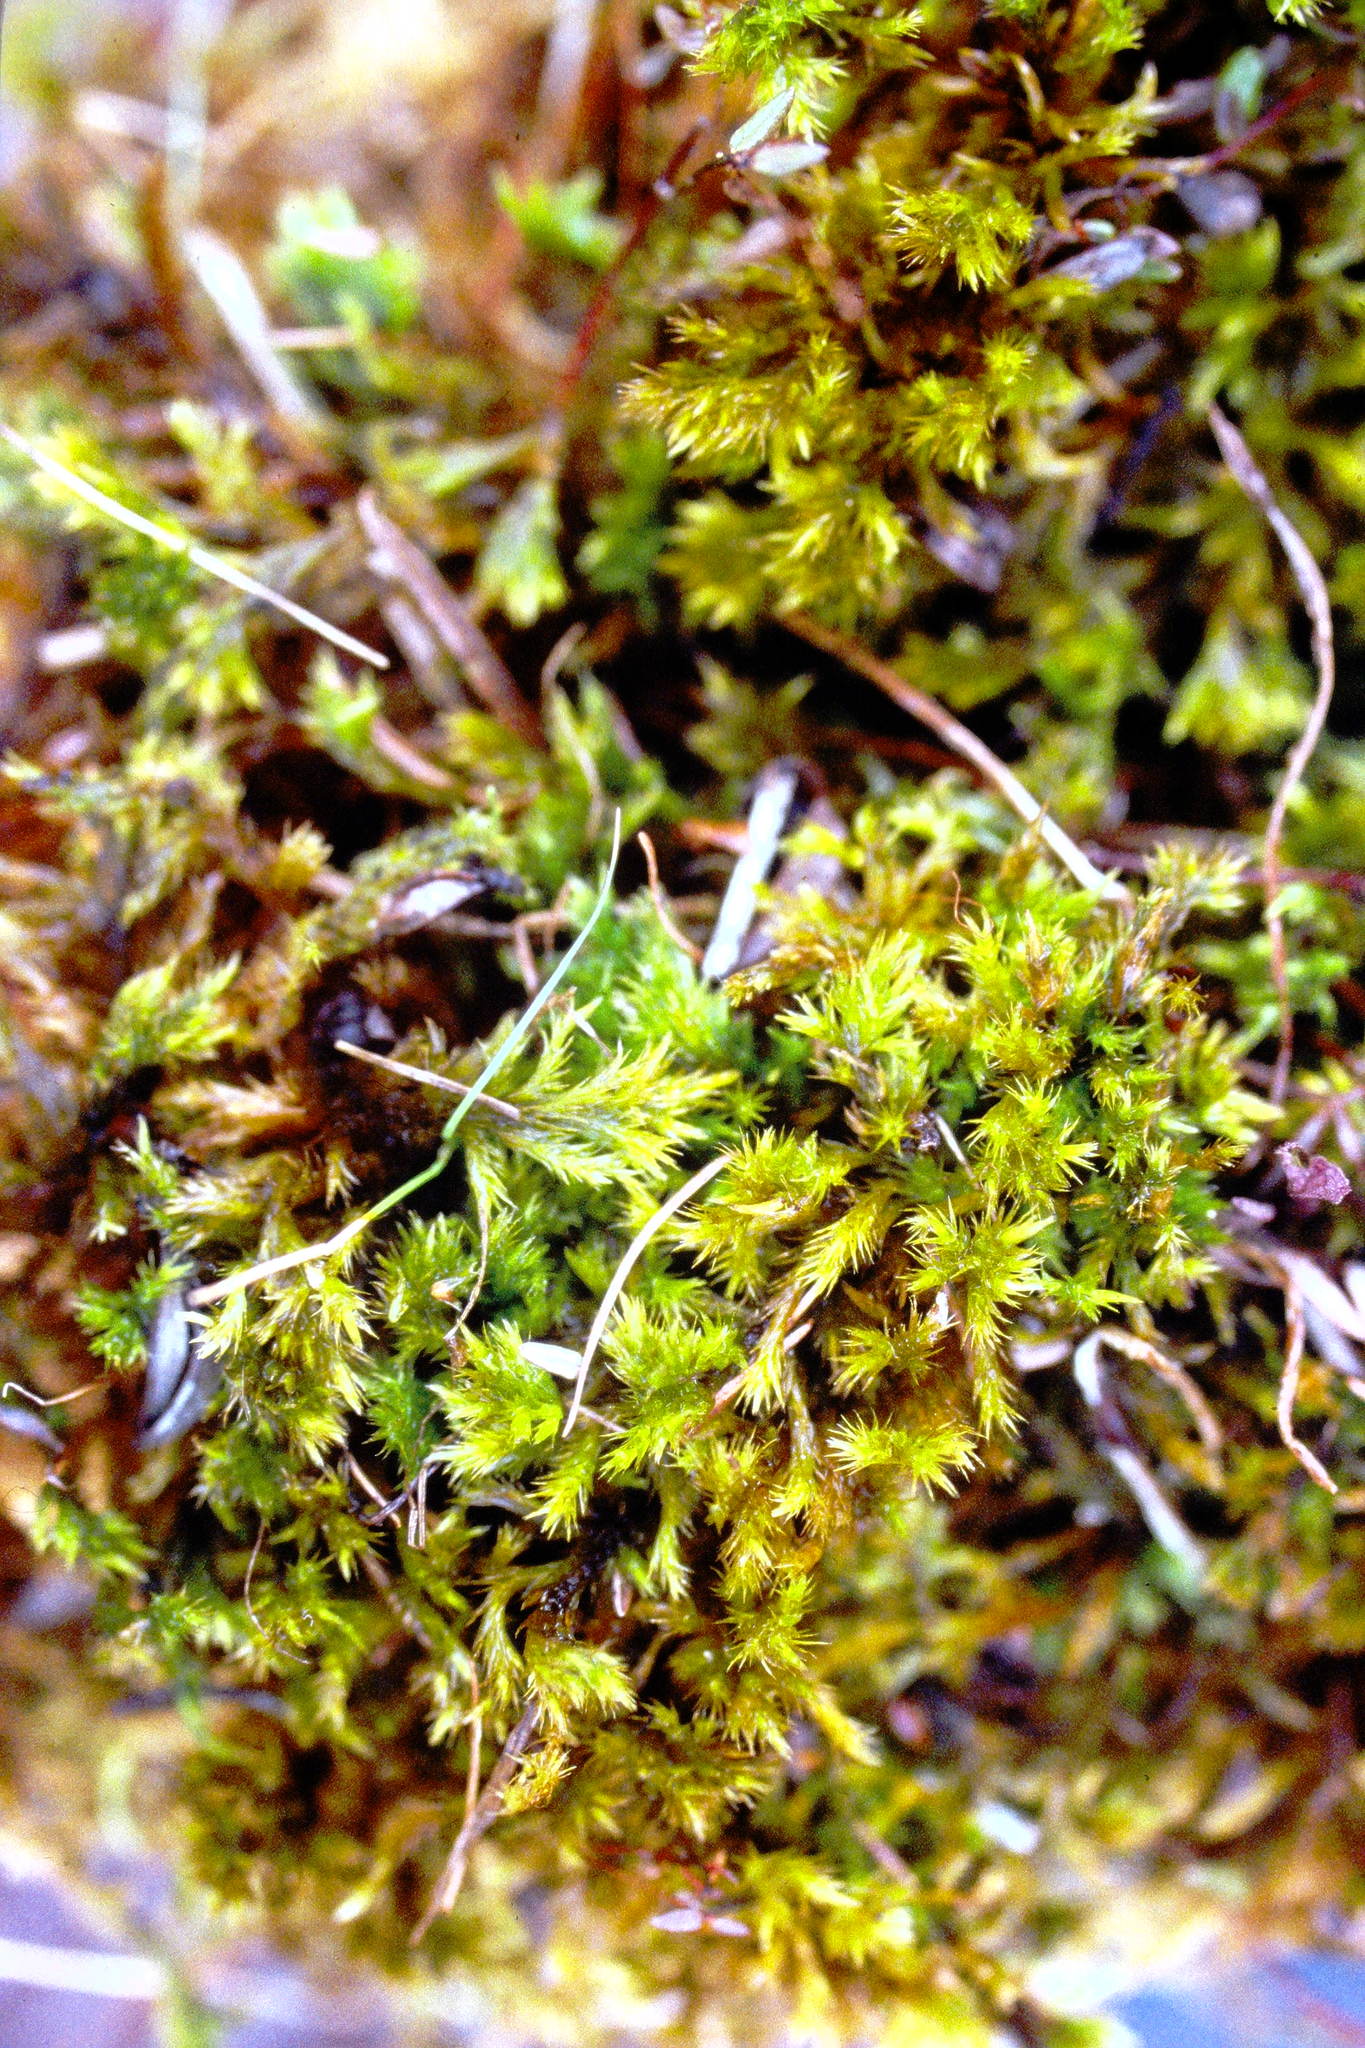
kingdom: Plantae
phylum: Bryophyta
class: Bryopsida
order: Hypnales
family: Amblystegiaceae
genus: Tomentypnum
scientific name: Tomentypnum nitens
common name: Golden fuzzy fen moss
